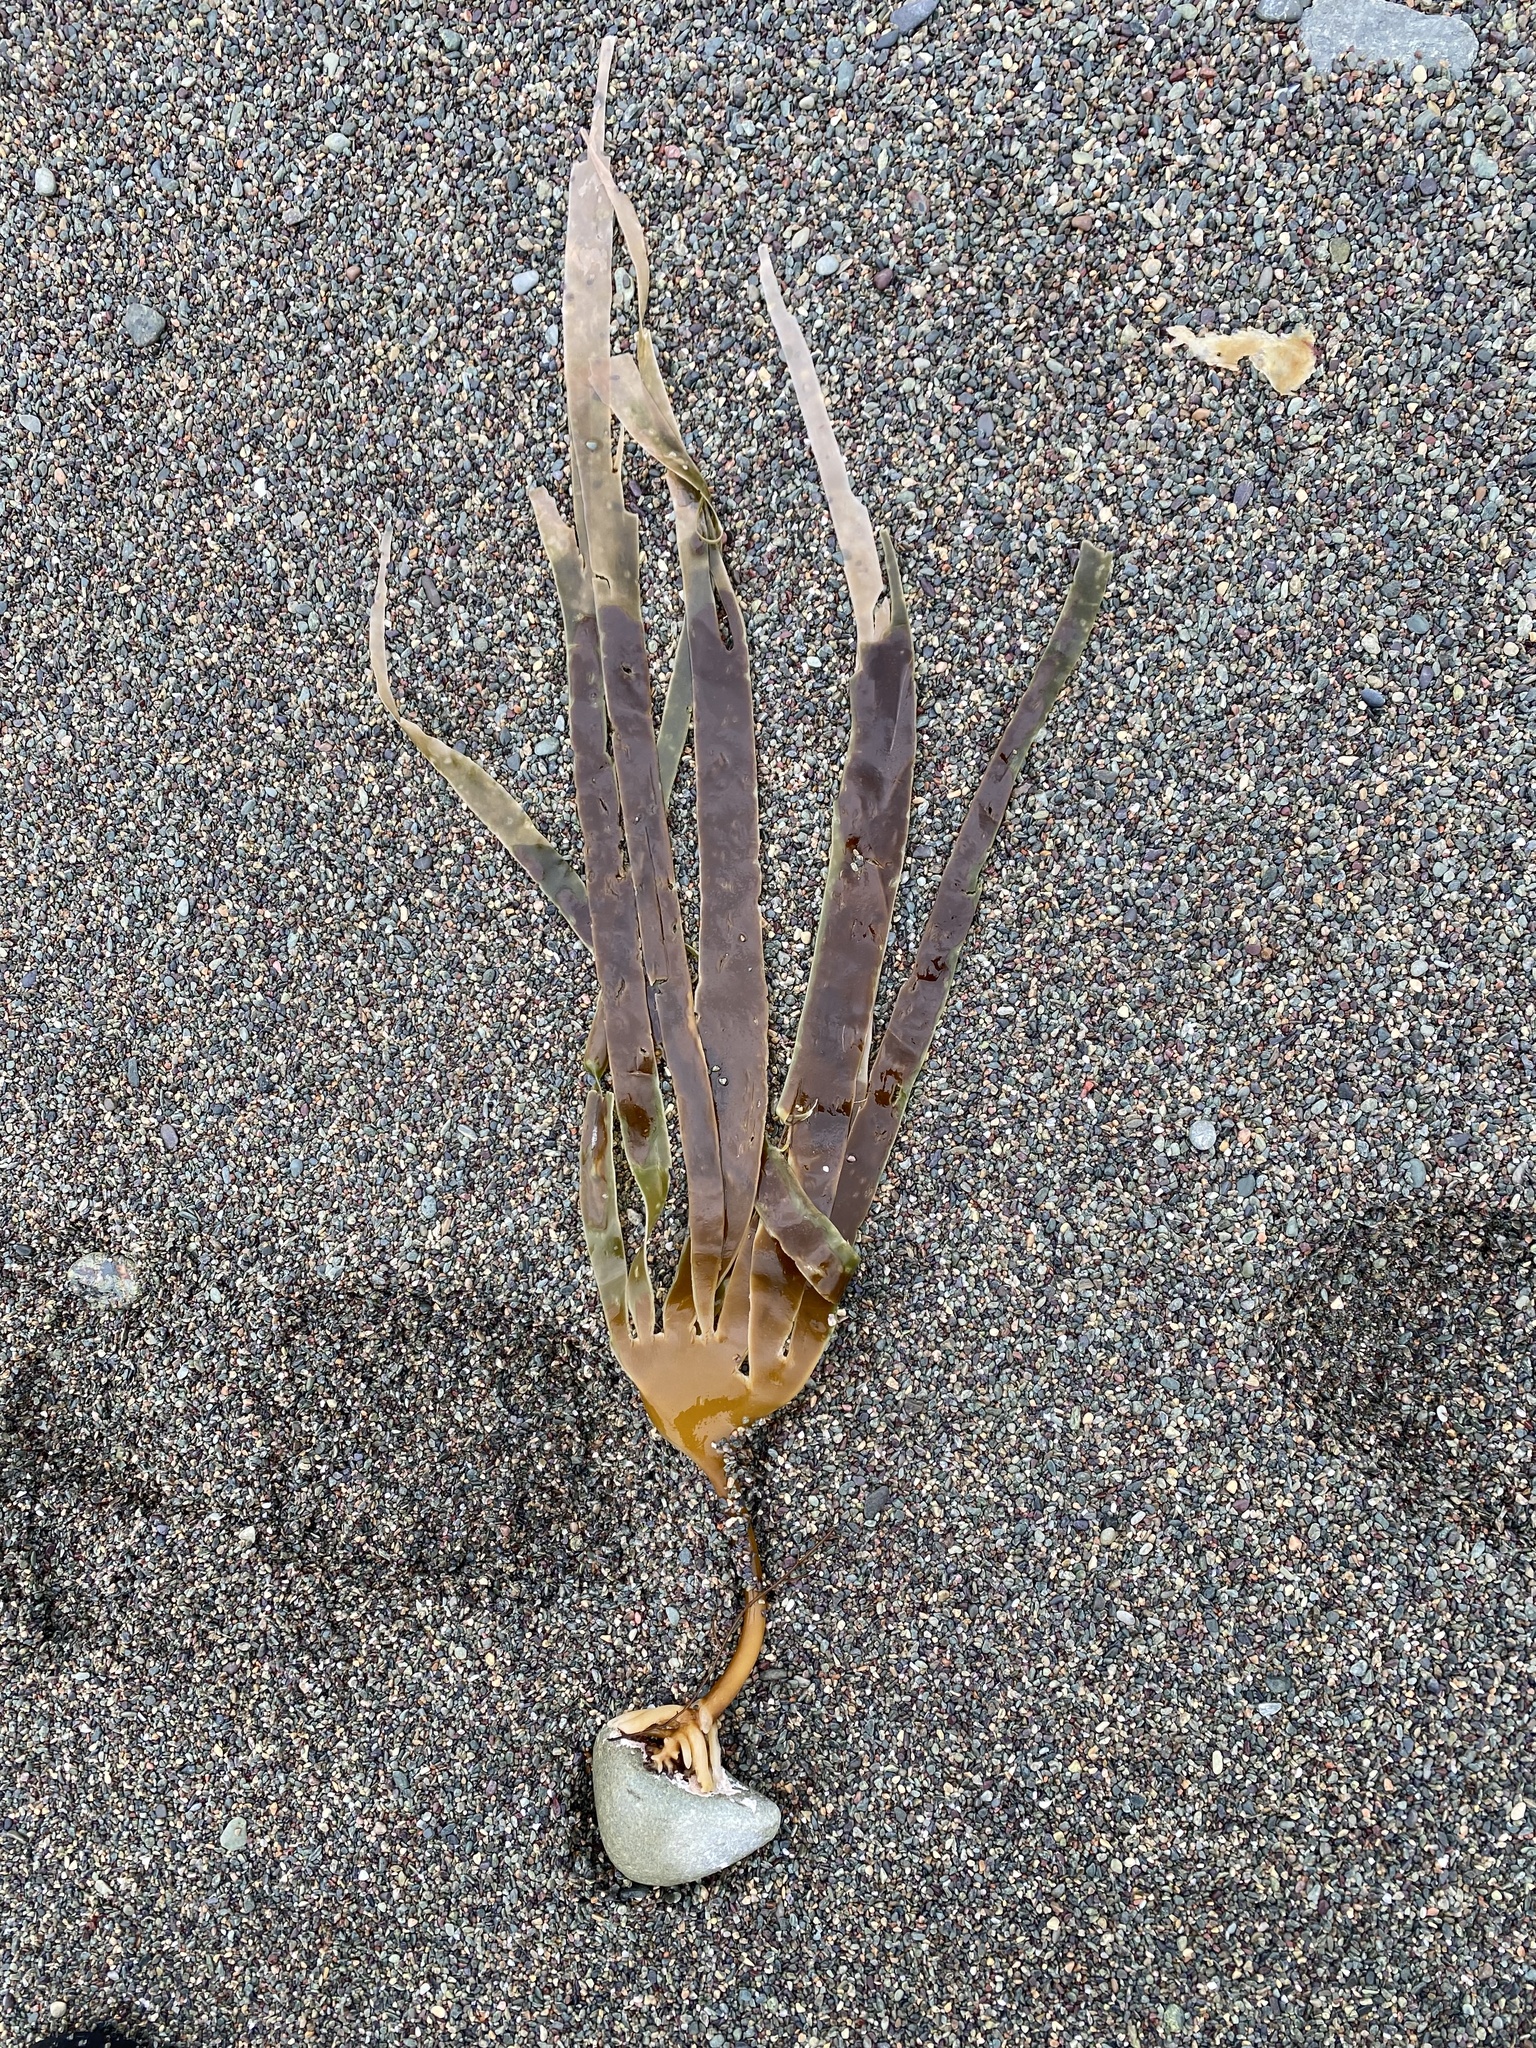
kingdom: Chromista
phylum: Ochrophyta
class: Phaeophyceae
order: Laminariales
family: Laminariaceae
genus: Laminaria
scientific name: Laminaria digitata
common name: Oarweed
